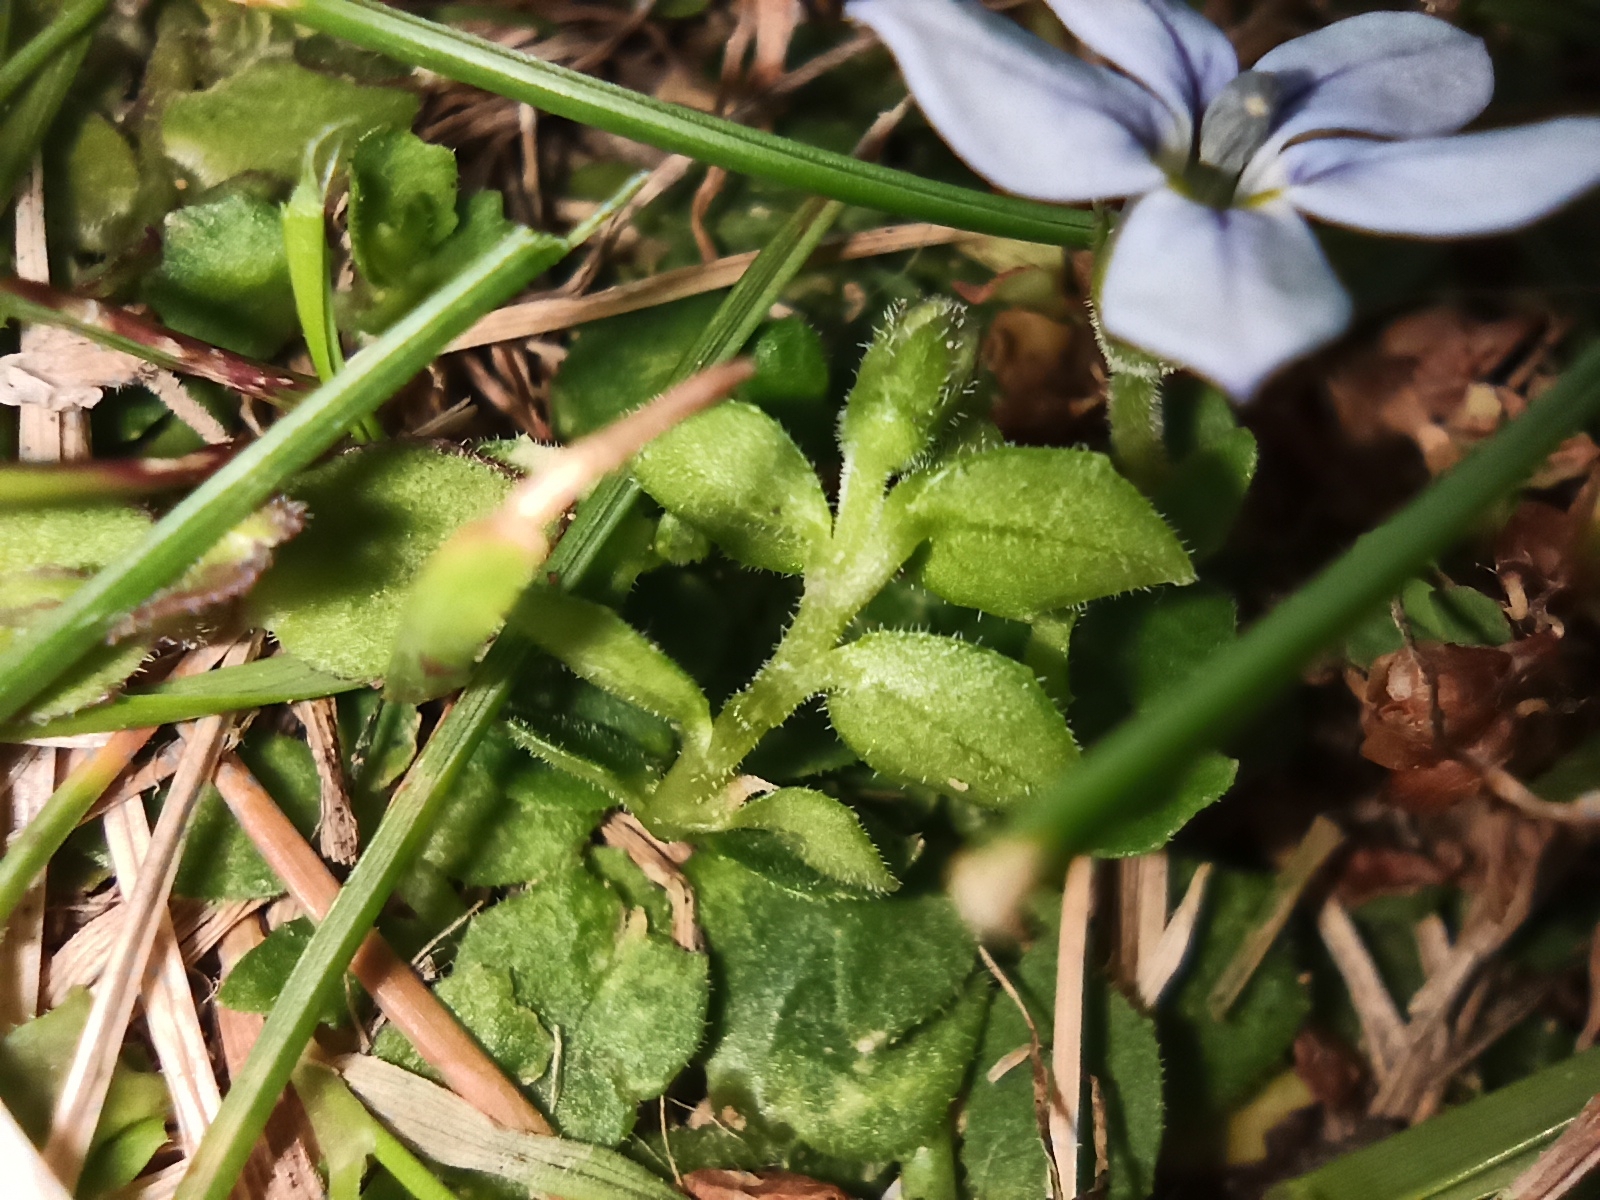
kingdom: Plantae
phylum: Tracheophyta
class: Magnoliopsida
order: Asterales
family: Campanulaceae
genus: Lobelia
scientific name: Lobelia pedunculata
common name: Matted pratia
